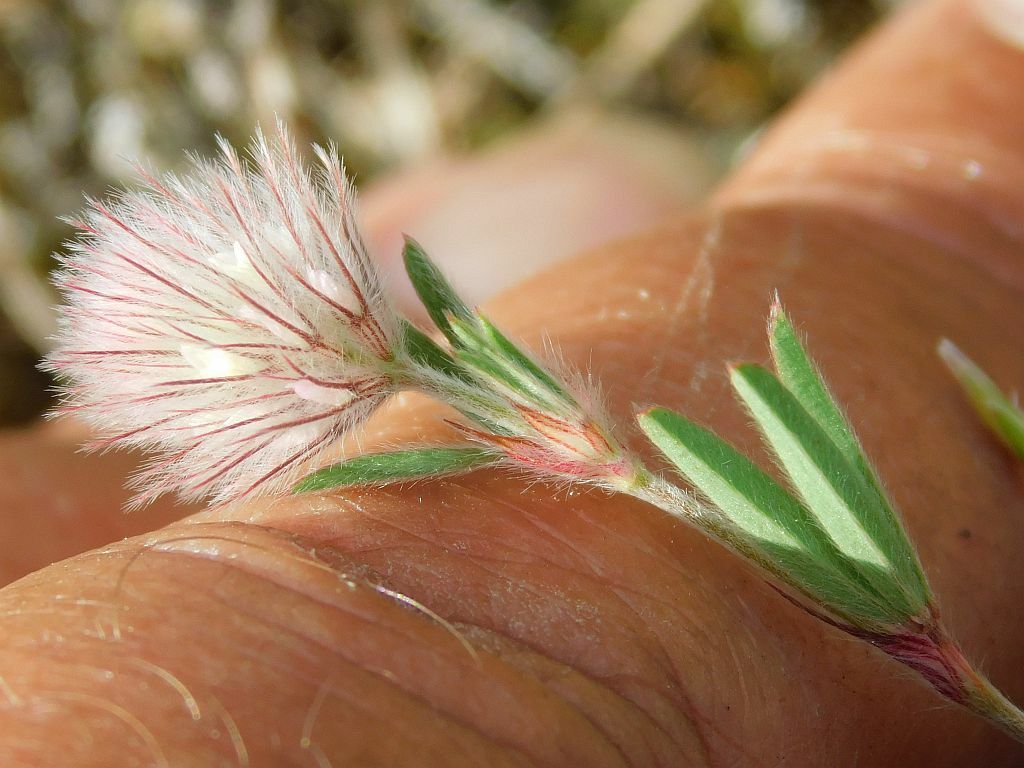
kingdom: Plantae
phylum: Tracheophyta
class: Magnoliopsida
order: Fabales
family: Fabaceae
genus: Trifolium
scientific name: Trifolium arvense
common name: Hare's-foot clover
